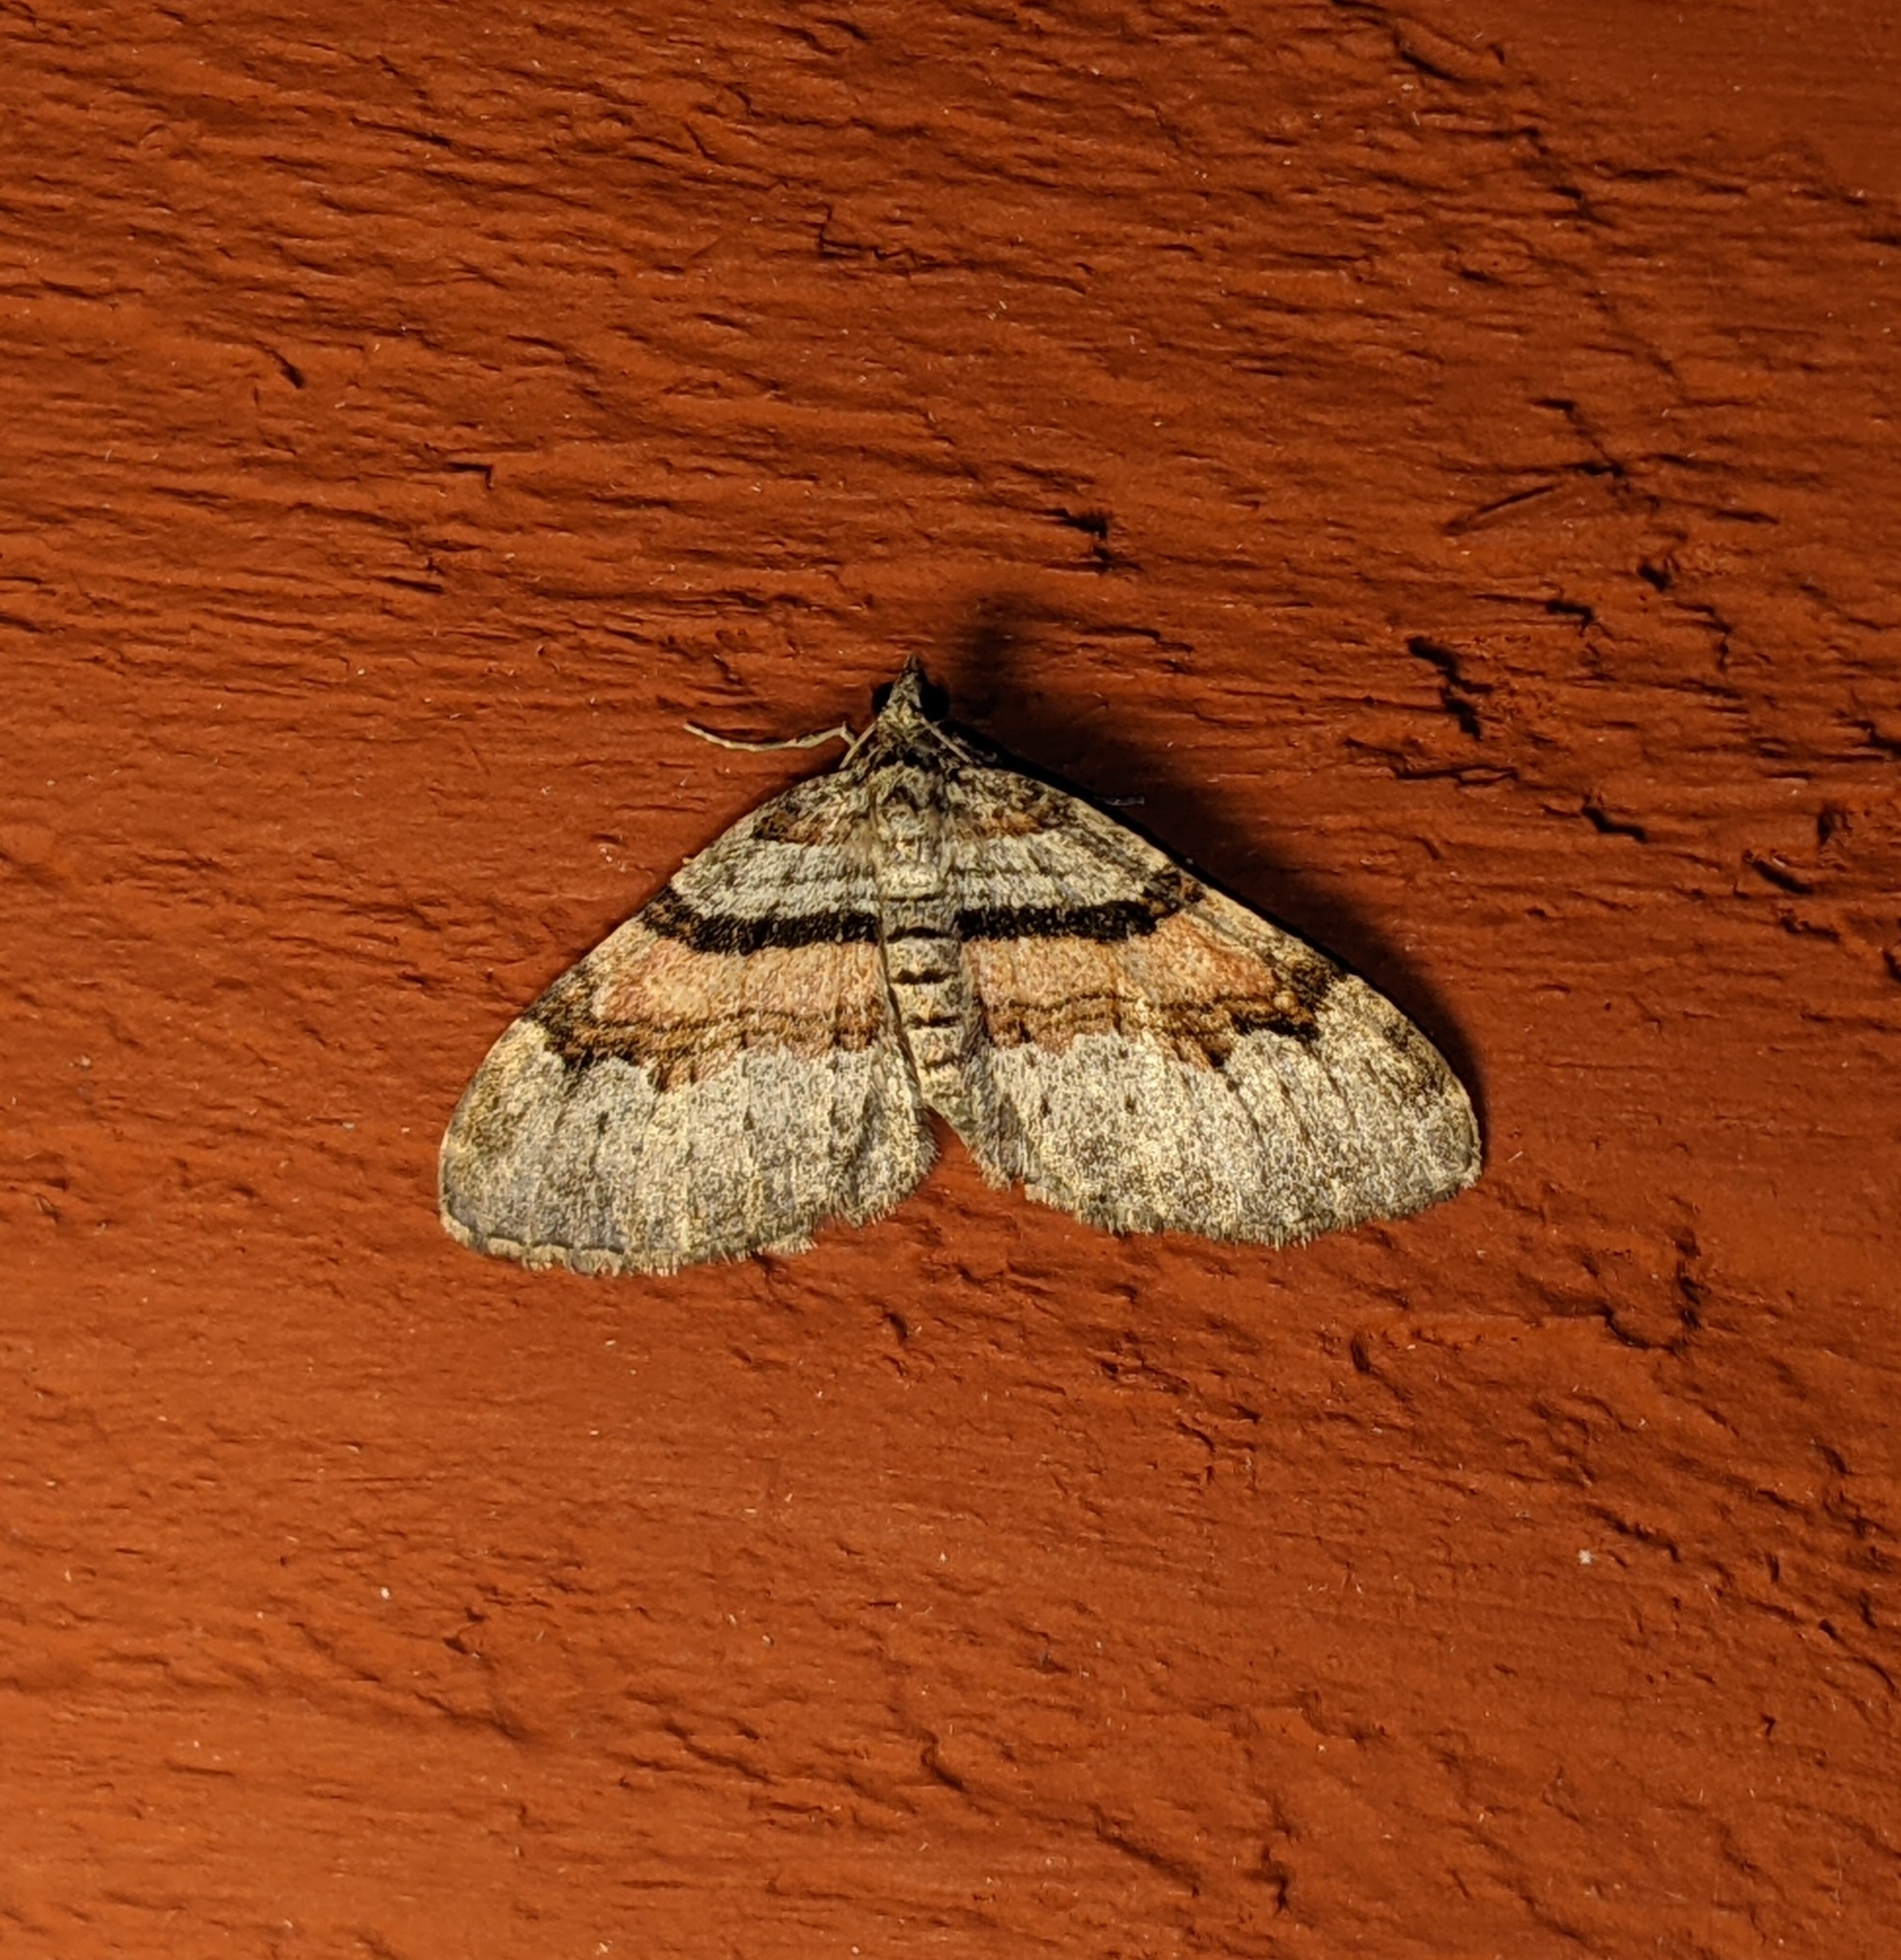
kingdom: Animalia
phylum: Arthropoda
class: Insecta
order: Lepidoptera
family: Geometridae
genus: Xanthorhoe
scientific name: Xanthorhoe labradorensis
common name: Labrador carpet
